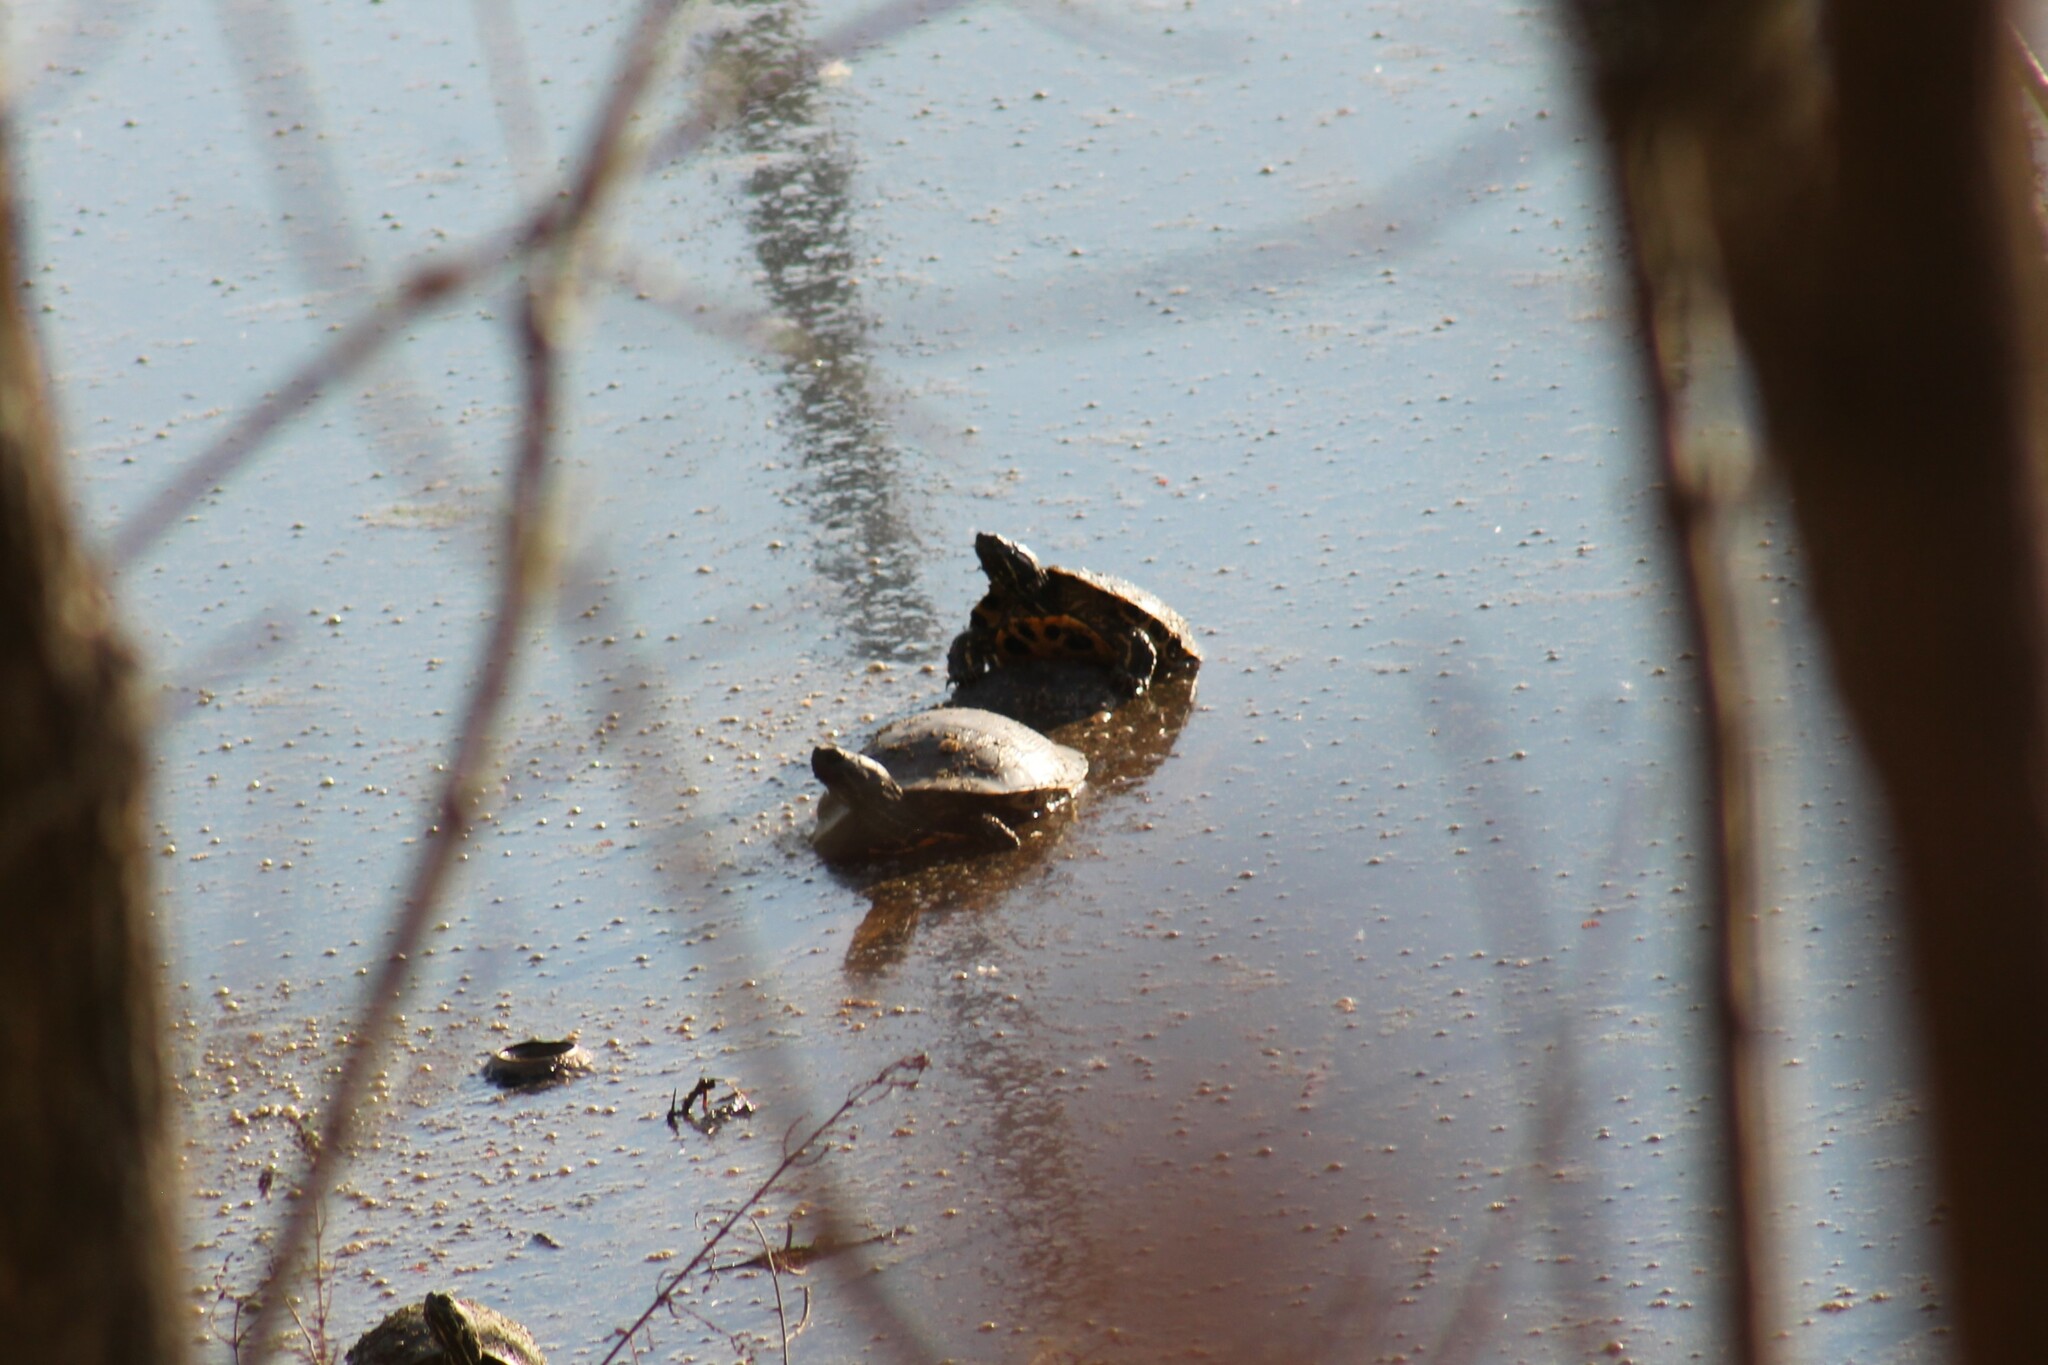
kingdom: Animalia
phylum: Chordata
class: Testudines
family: Emydidae
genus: Trachemys
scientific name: Trachemys scripta
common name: Slider
